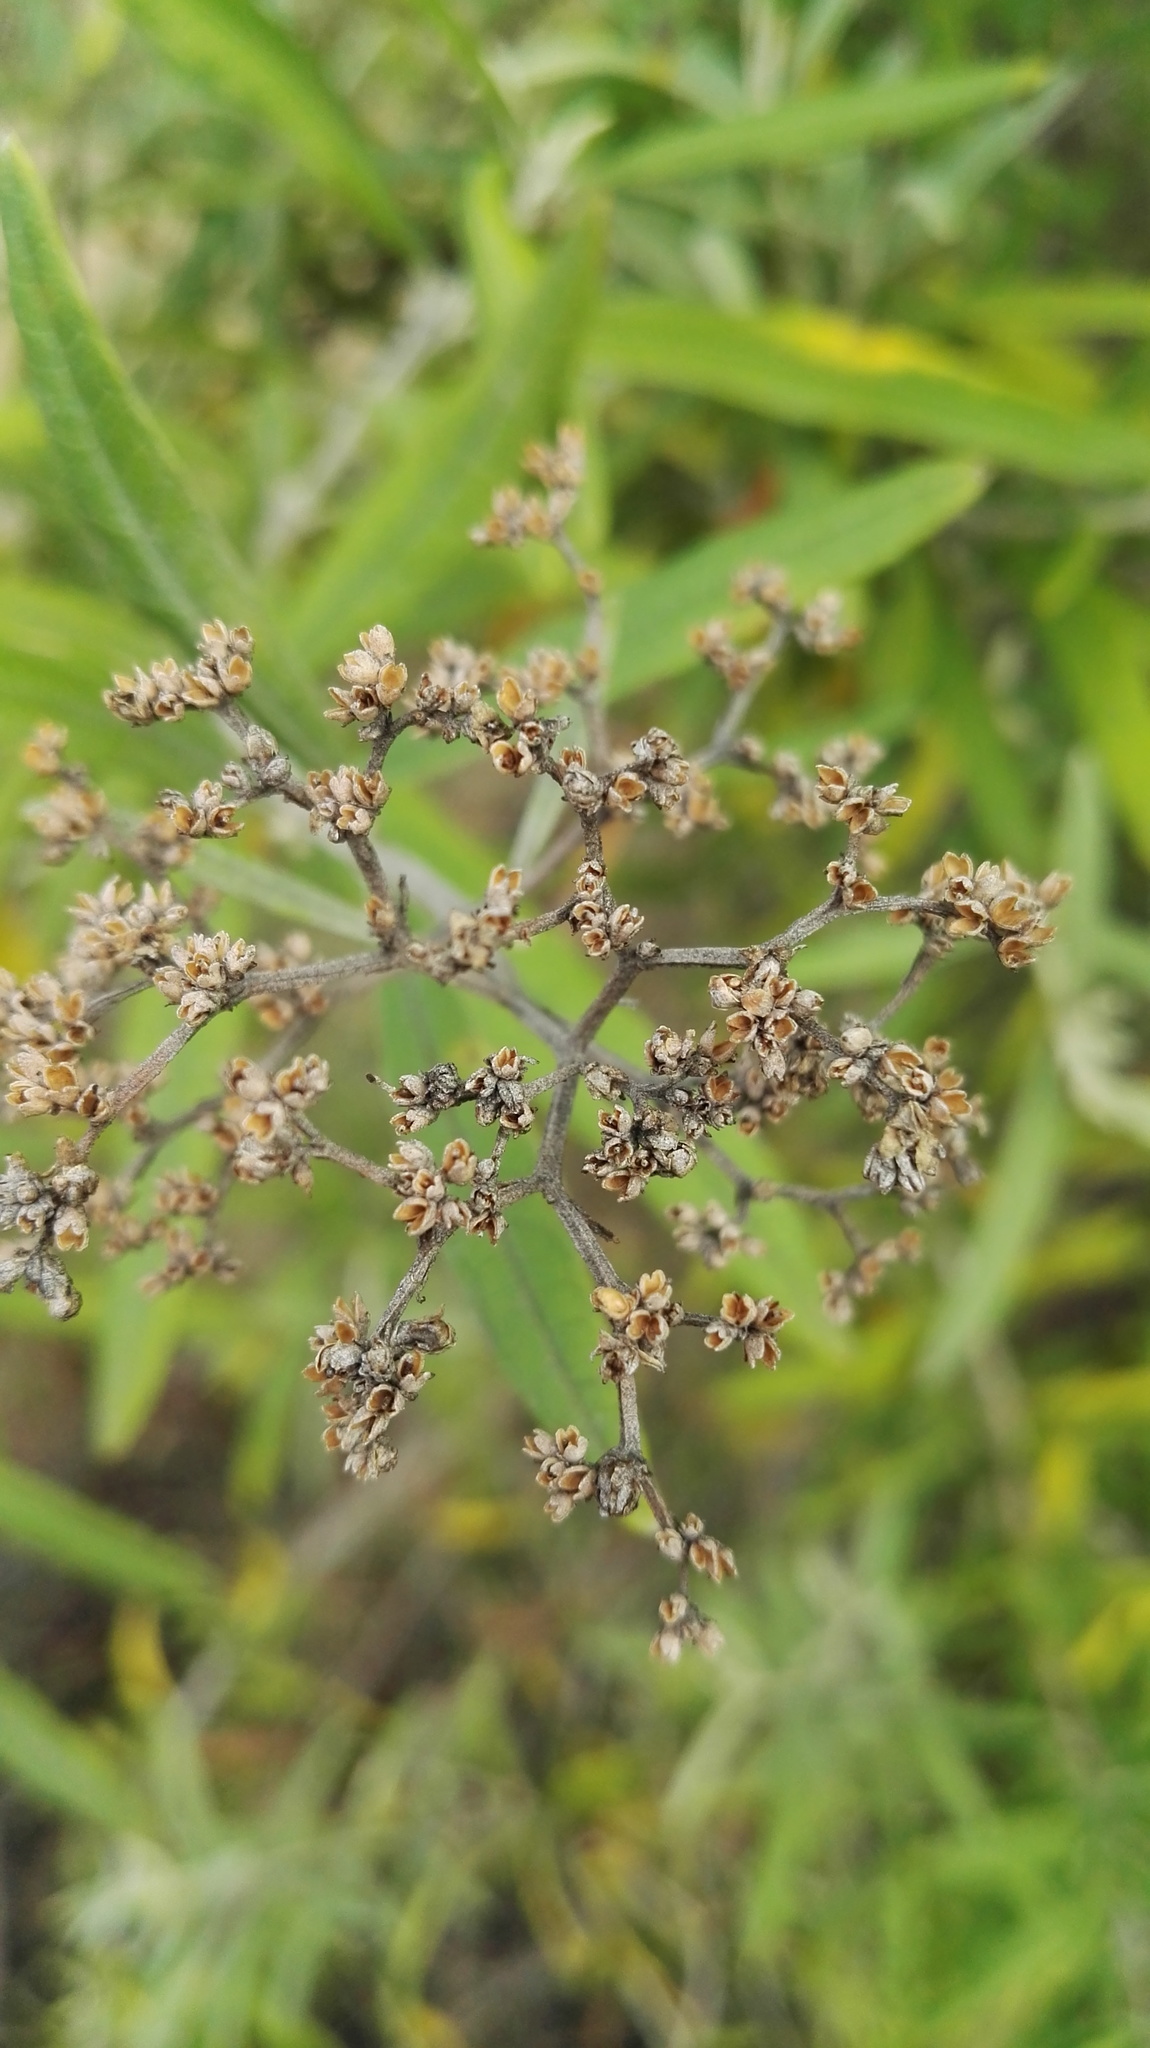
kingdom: Plantae
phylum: Tracheophyta
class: Magnoliopsida
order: Lamiales
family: Scrophulariaceae
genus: Buddleja
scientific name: Buddleja saligna
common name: False olive
